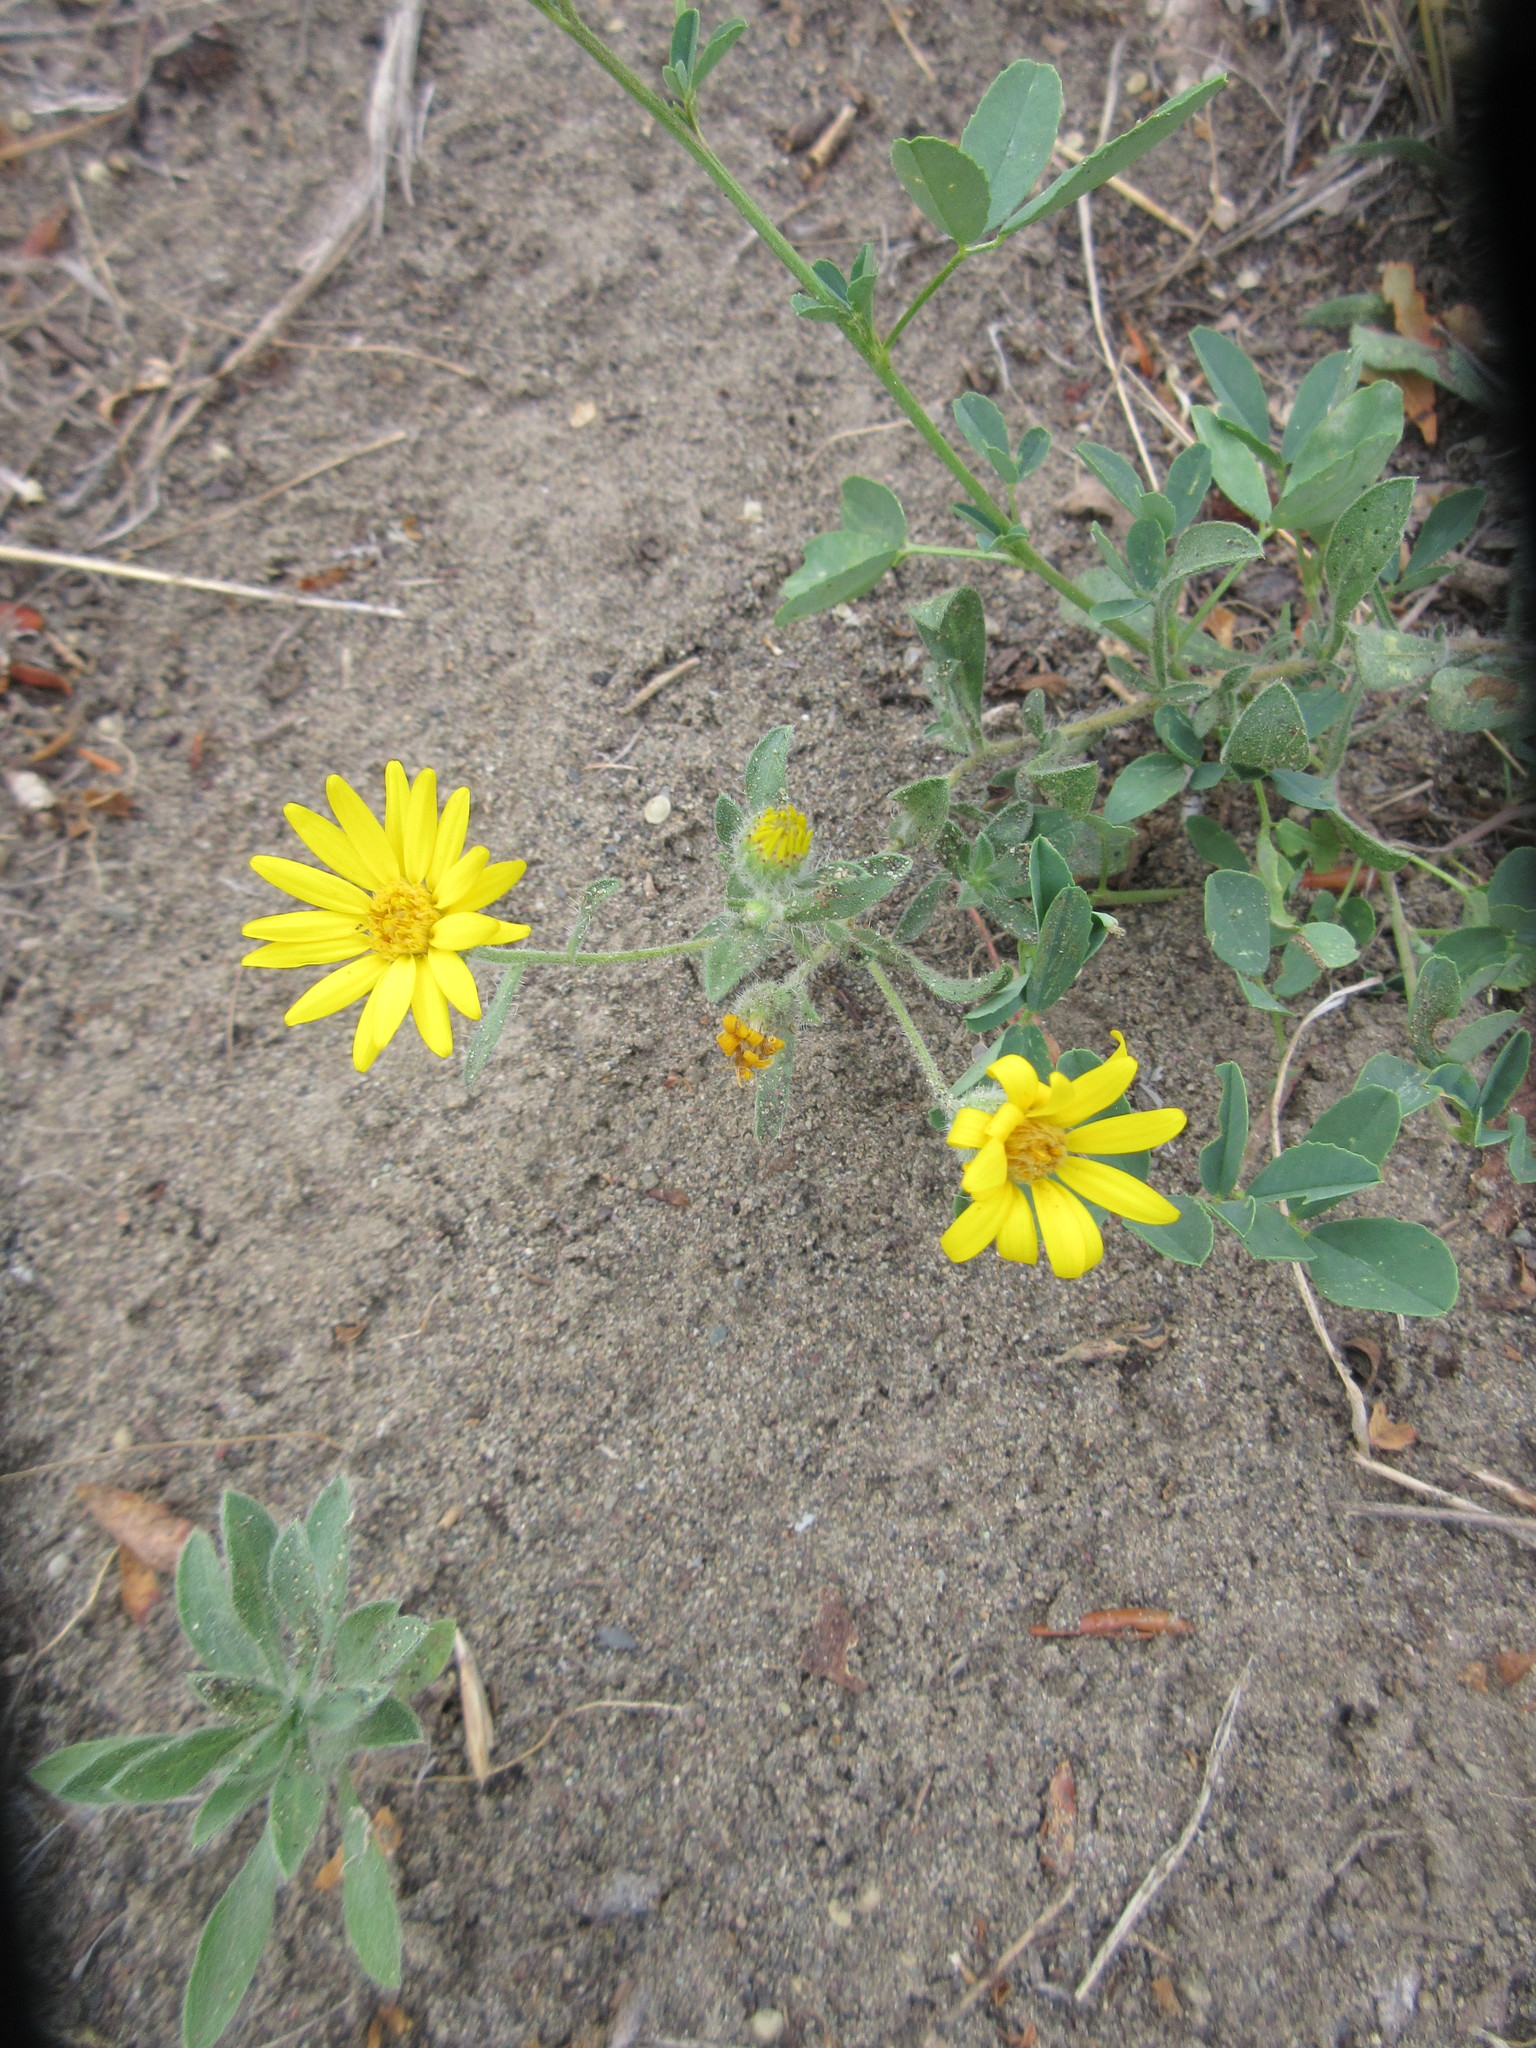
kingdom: Plantae
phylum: Tracheophyta
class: Magnoliopsida
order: Asterales
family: Asteraceae
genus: Heterotheca
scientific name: Heterotheca villosa
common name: Hairy false goldenaster
